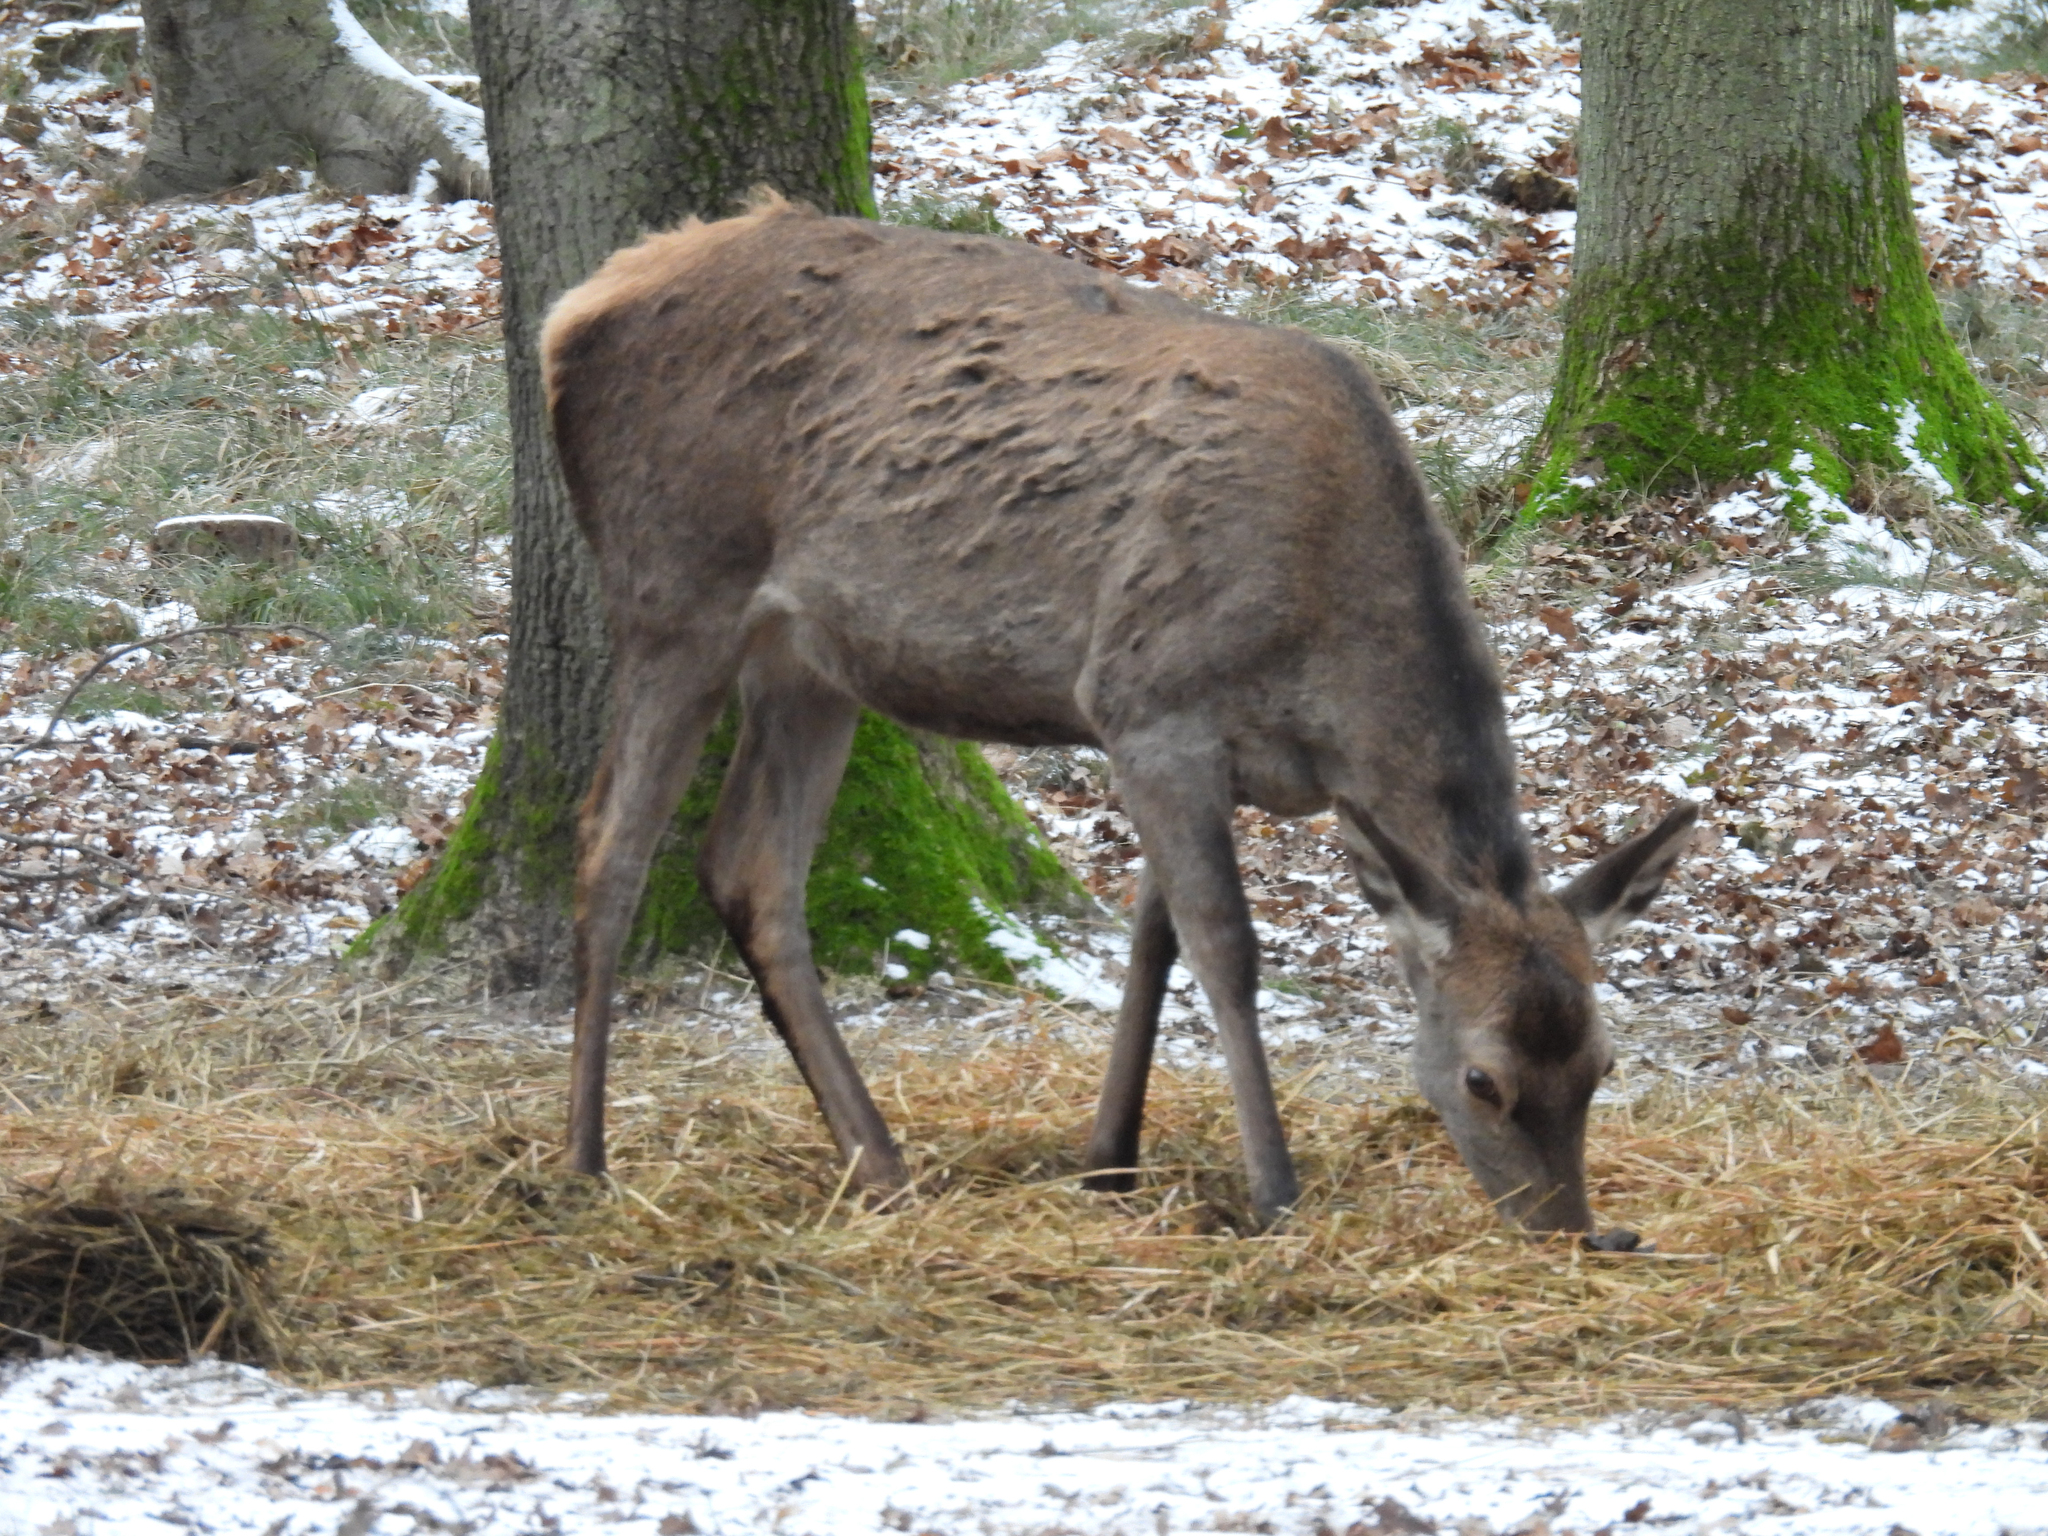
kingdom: Animalia
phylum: Chordata
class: Mammalia
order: Artiodactyla
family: Cervidae
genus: Cervus
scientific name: Cervus elaphus
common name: Red deer
